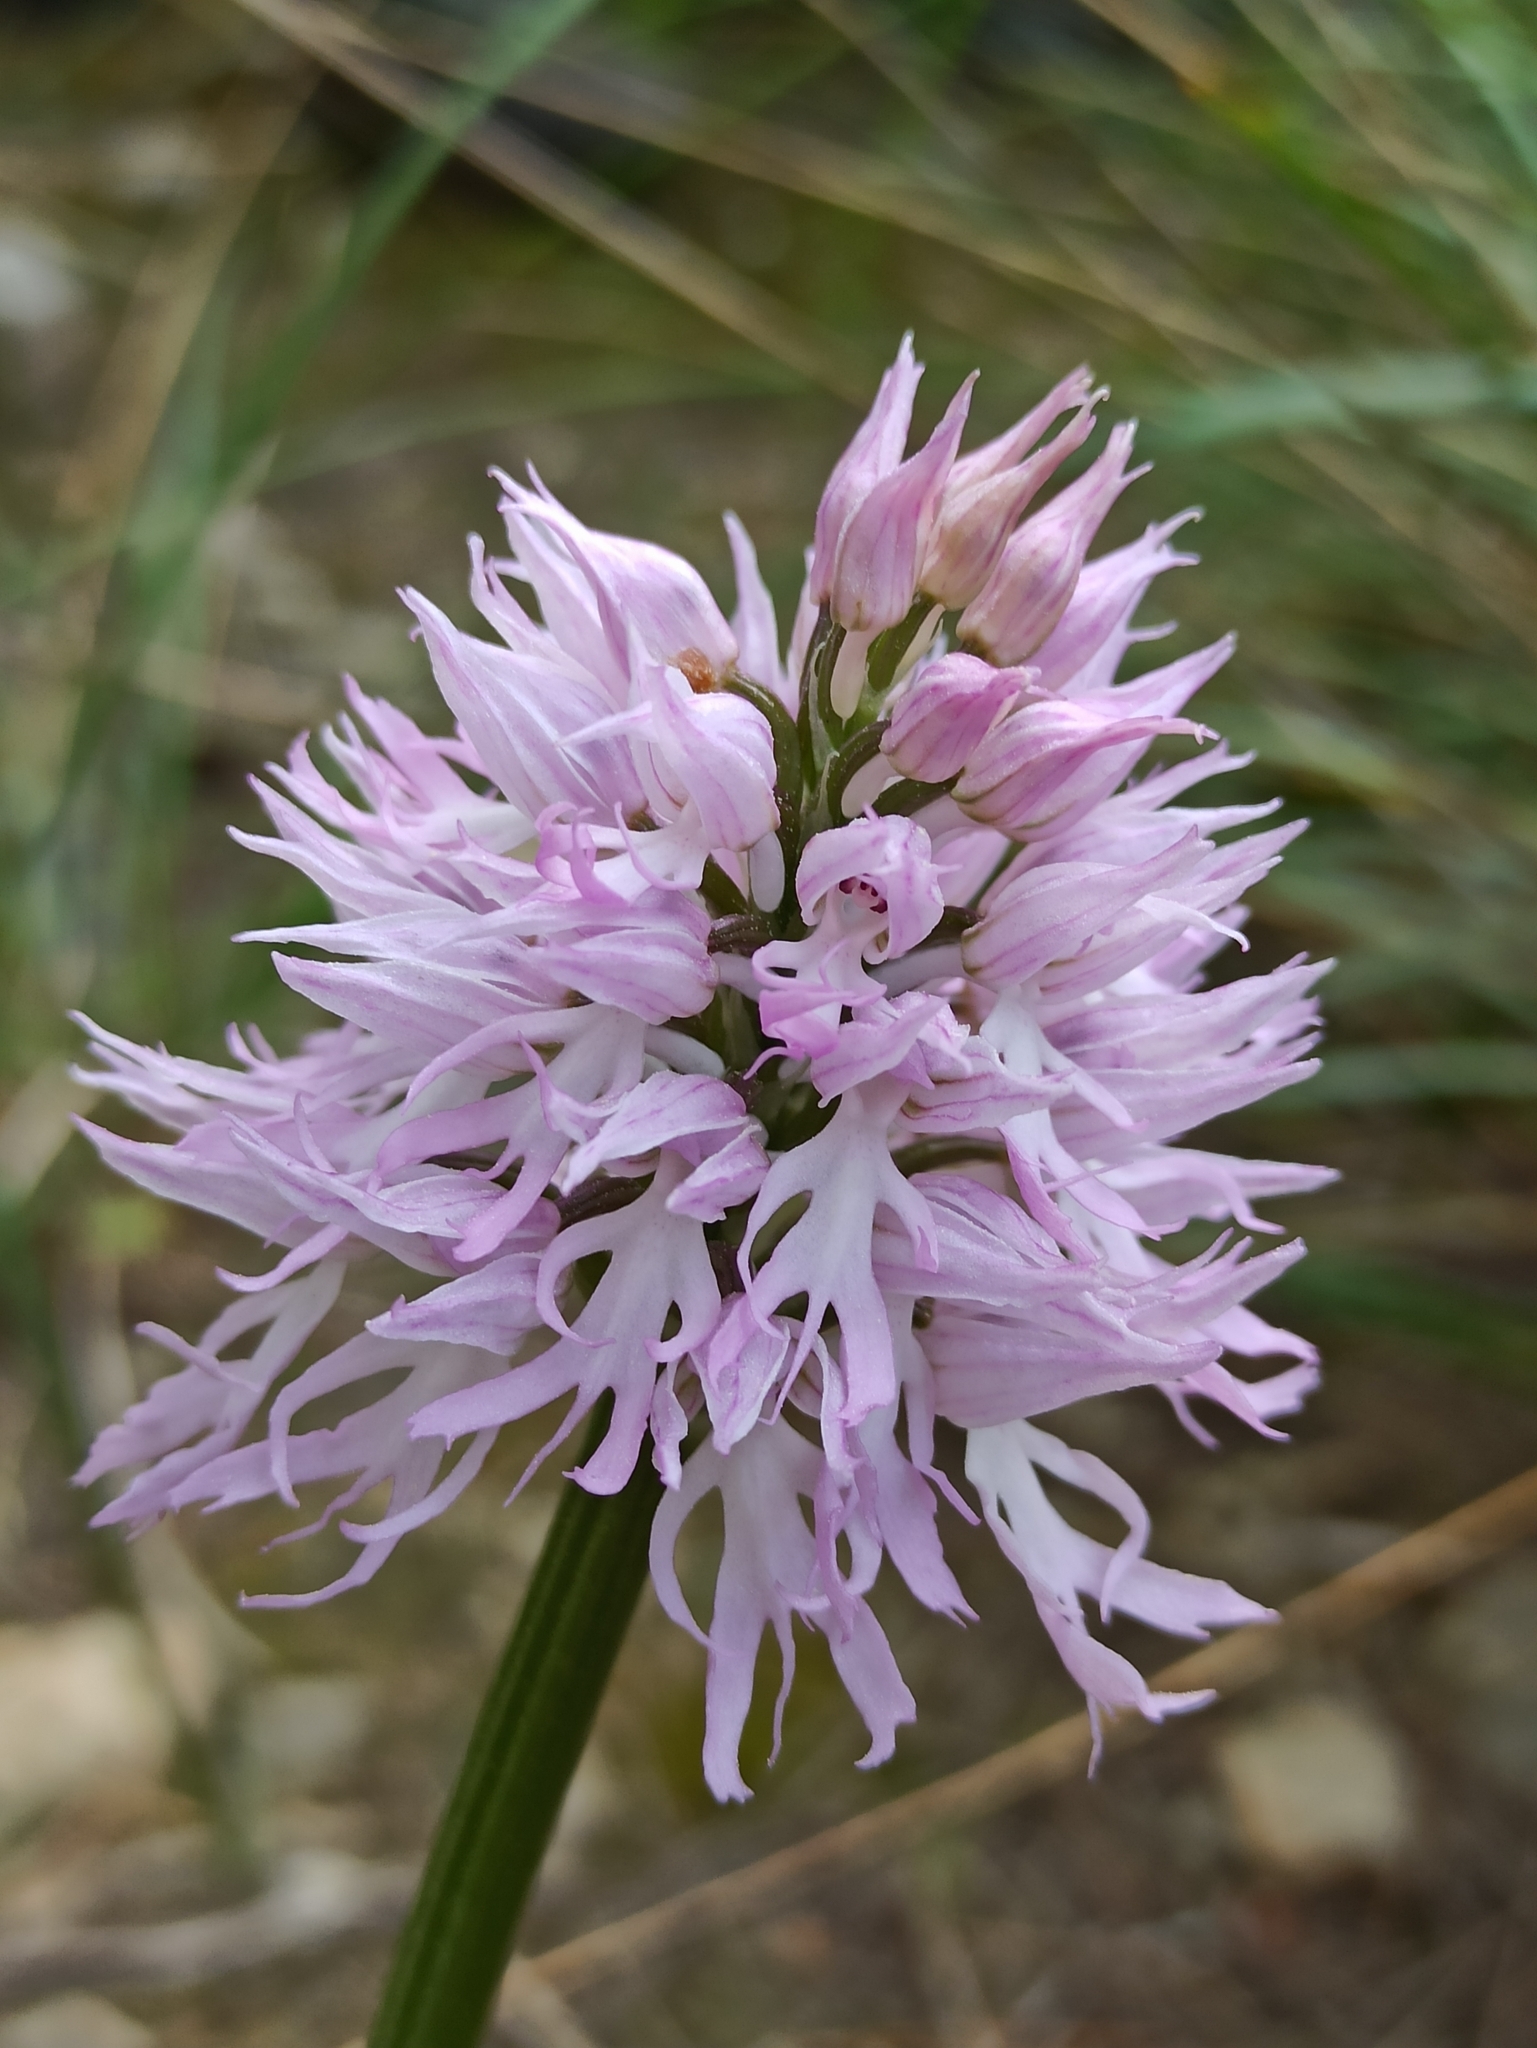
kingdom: Plantae
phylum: Tracheophyta
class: Liliopsida
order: Asparagales
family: Orchidaceae
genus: Orchis
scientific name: Orchis italica
